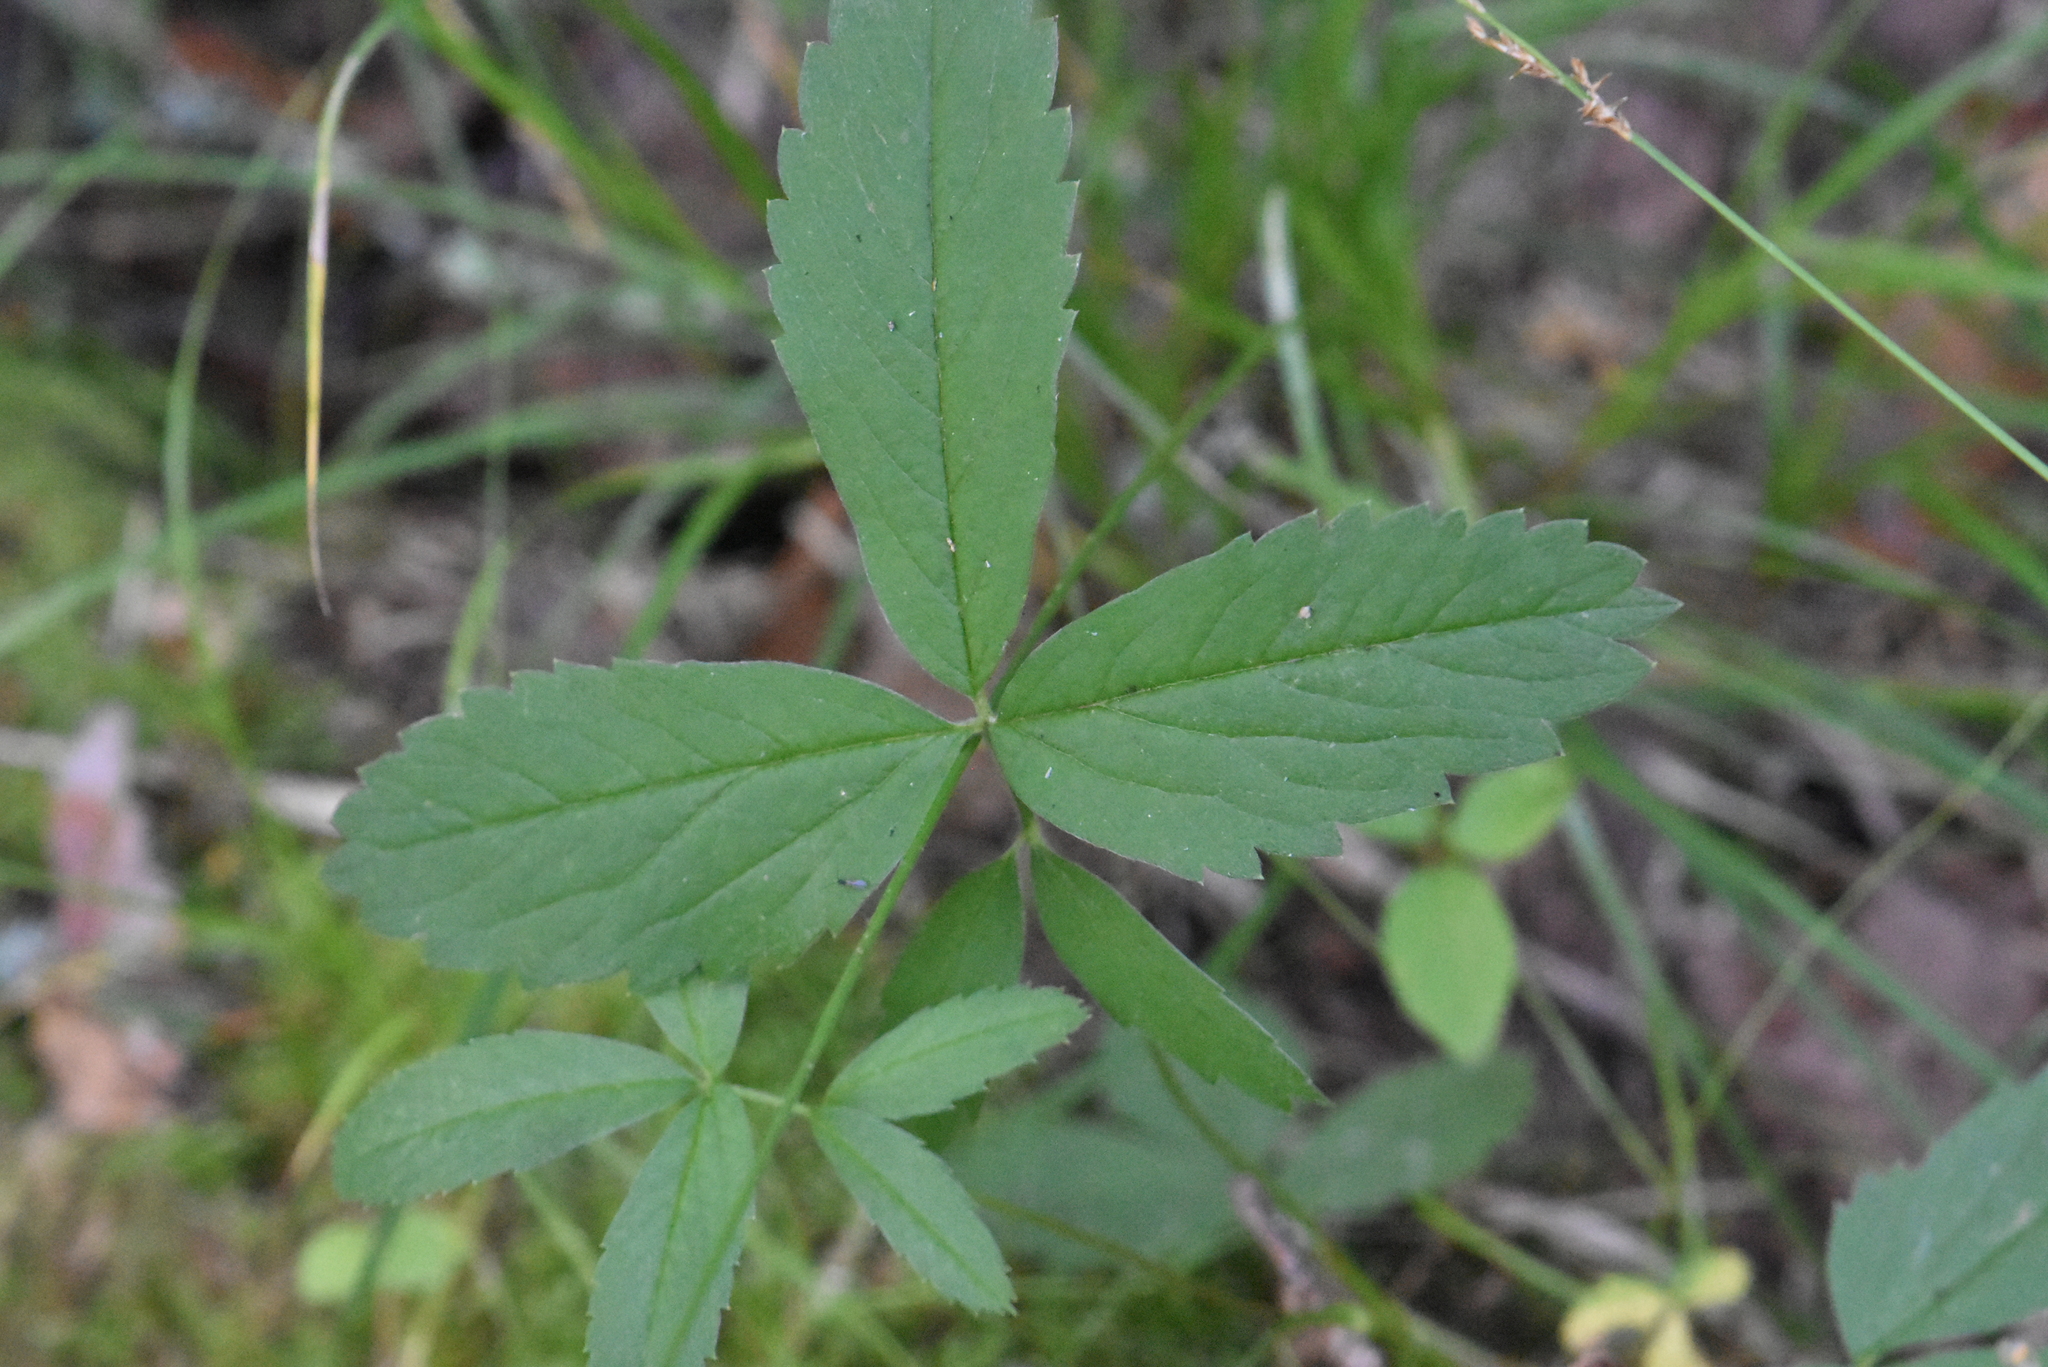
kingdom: Plantae
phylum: Tracheophyta
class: Magnoliopsida
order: Rosales
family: Rosaceae
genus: Comarum
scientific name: Comarum palustre
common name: Marsh cinquefoil
